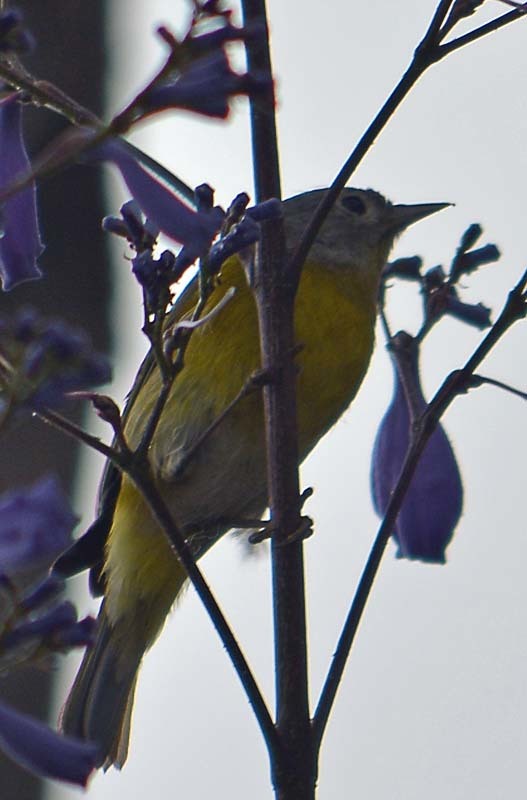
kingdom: Animalia
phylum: Chordata
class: Aves
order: Passeriformes
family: Parulidae
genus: Leiothlypis
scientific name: Leiothlypis ruficapilla
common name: Nashville warbler
